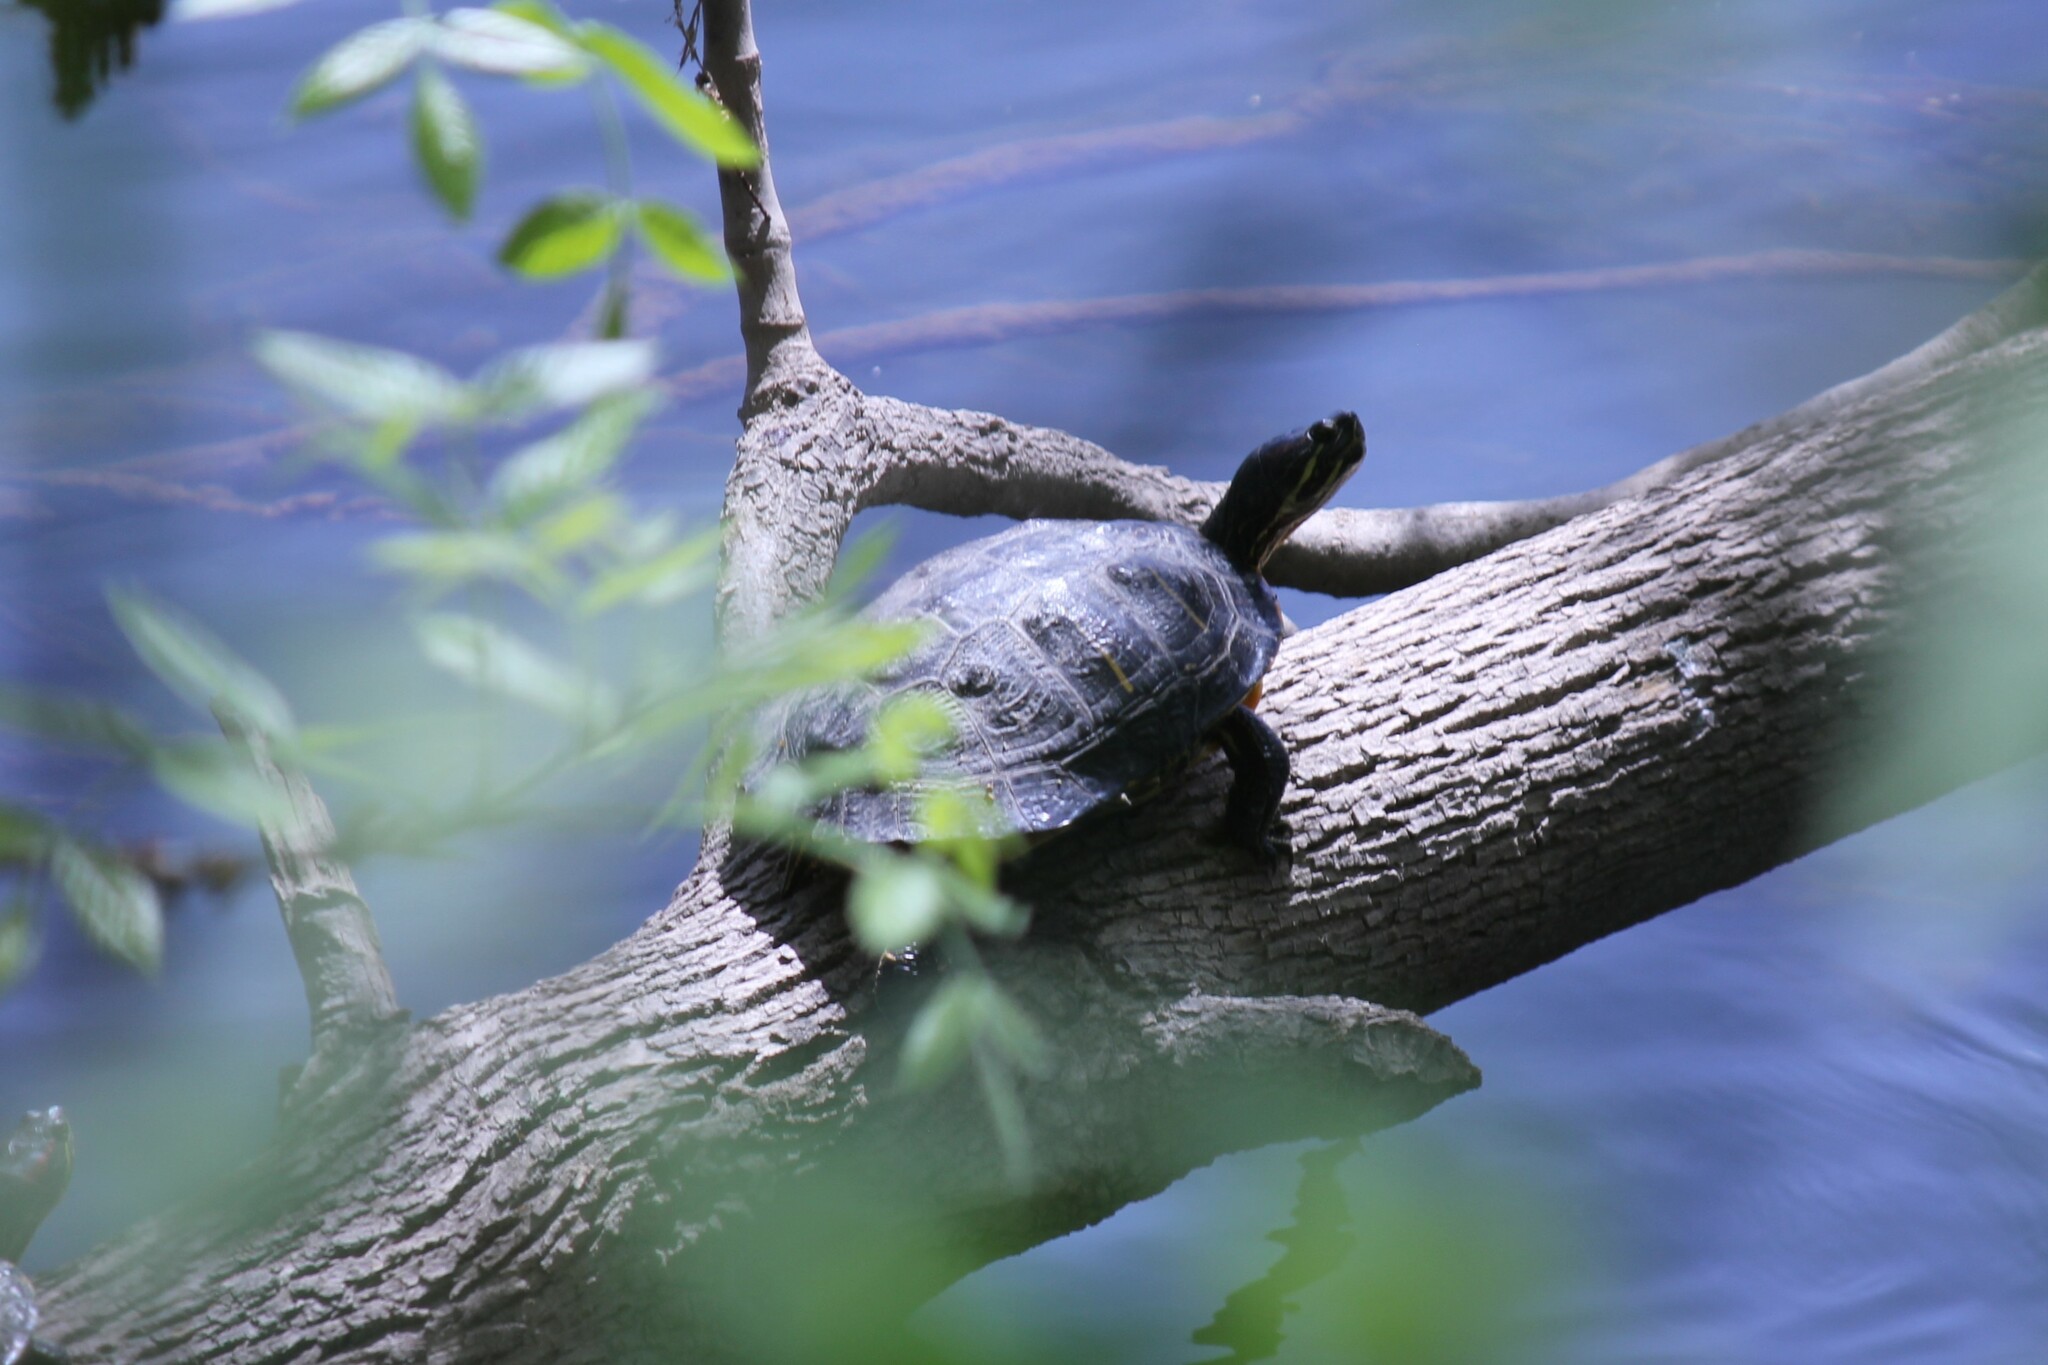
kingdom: Animalia
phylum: Chordata
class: Testudines
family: Emydidae
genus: Trachemys
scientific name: Trachemys scripta
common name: Slider
